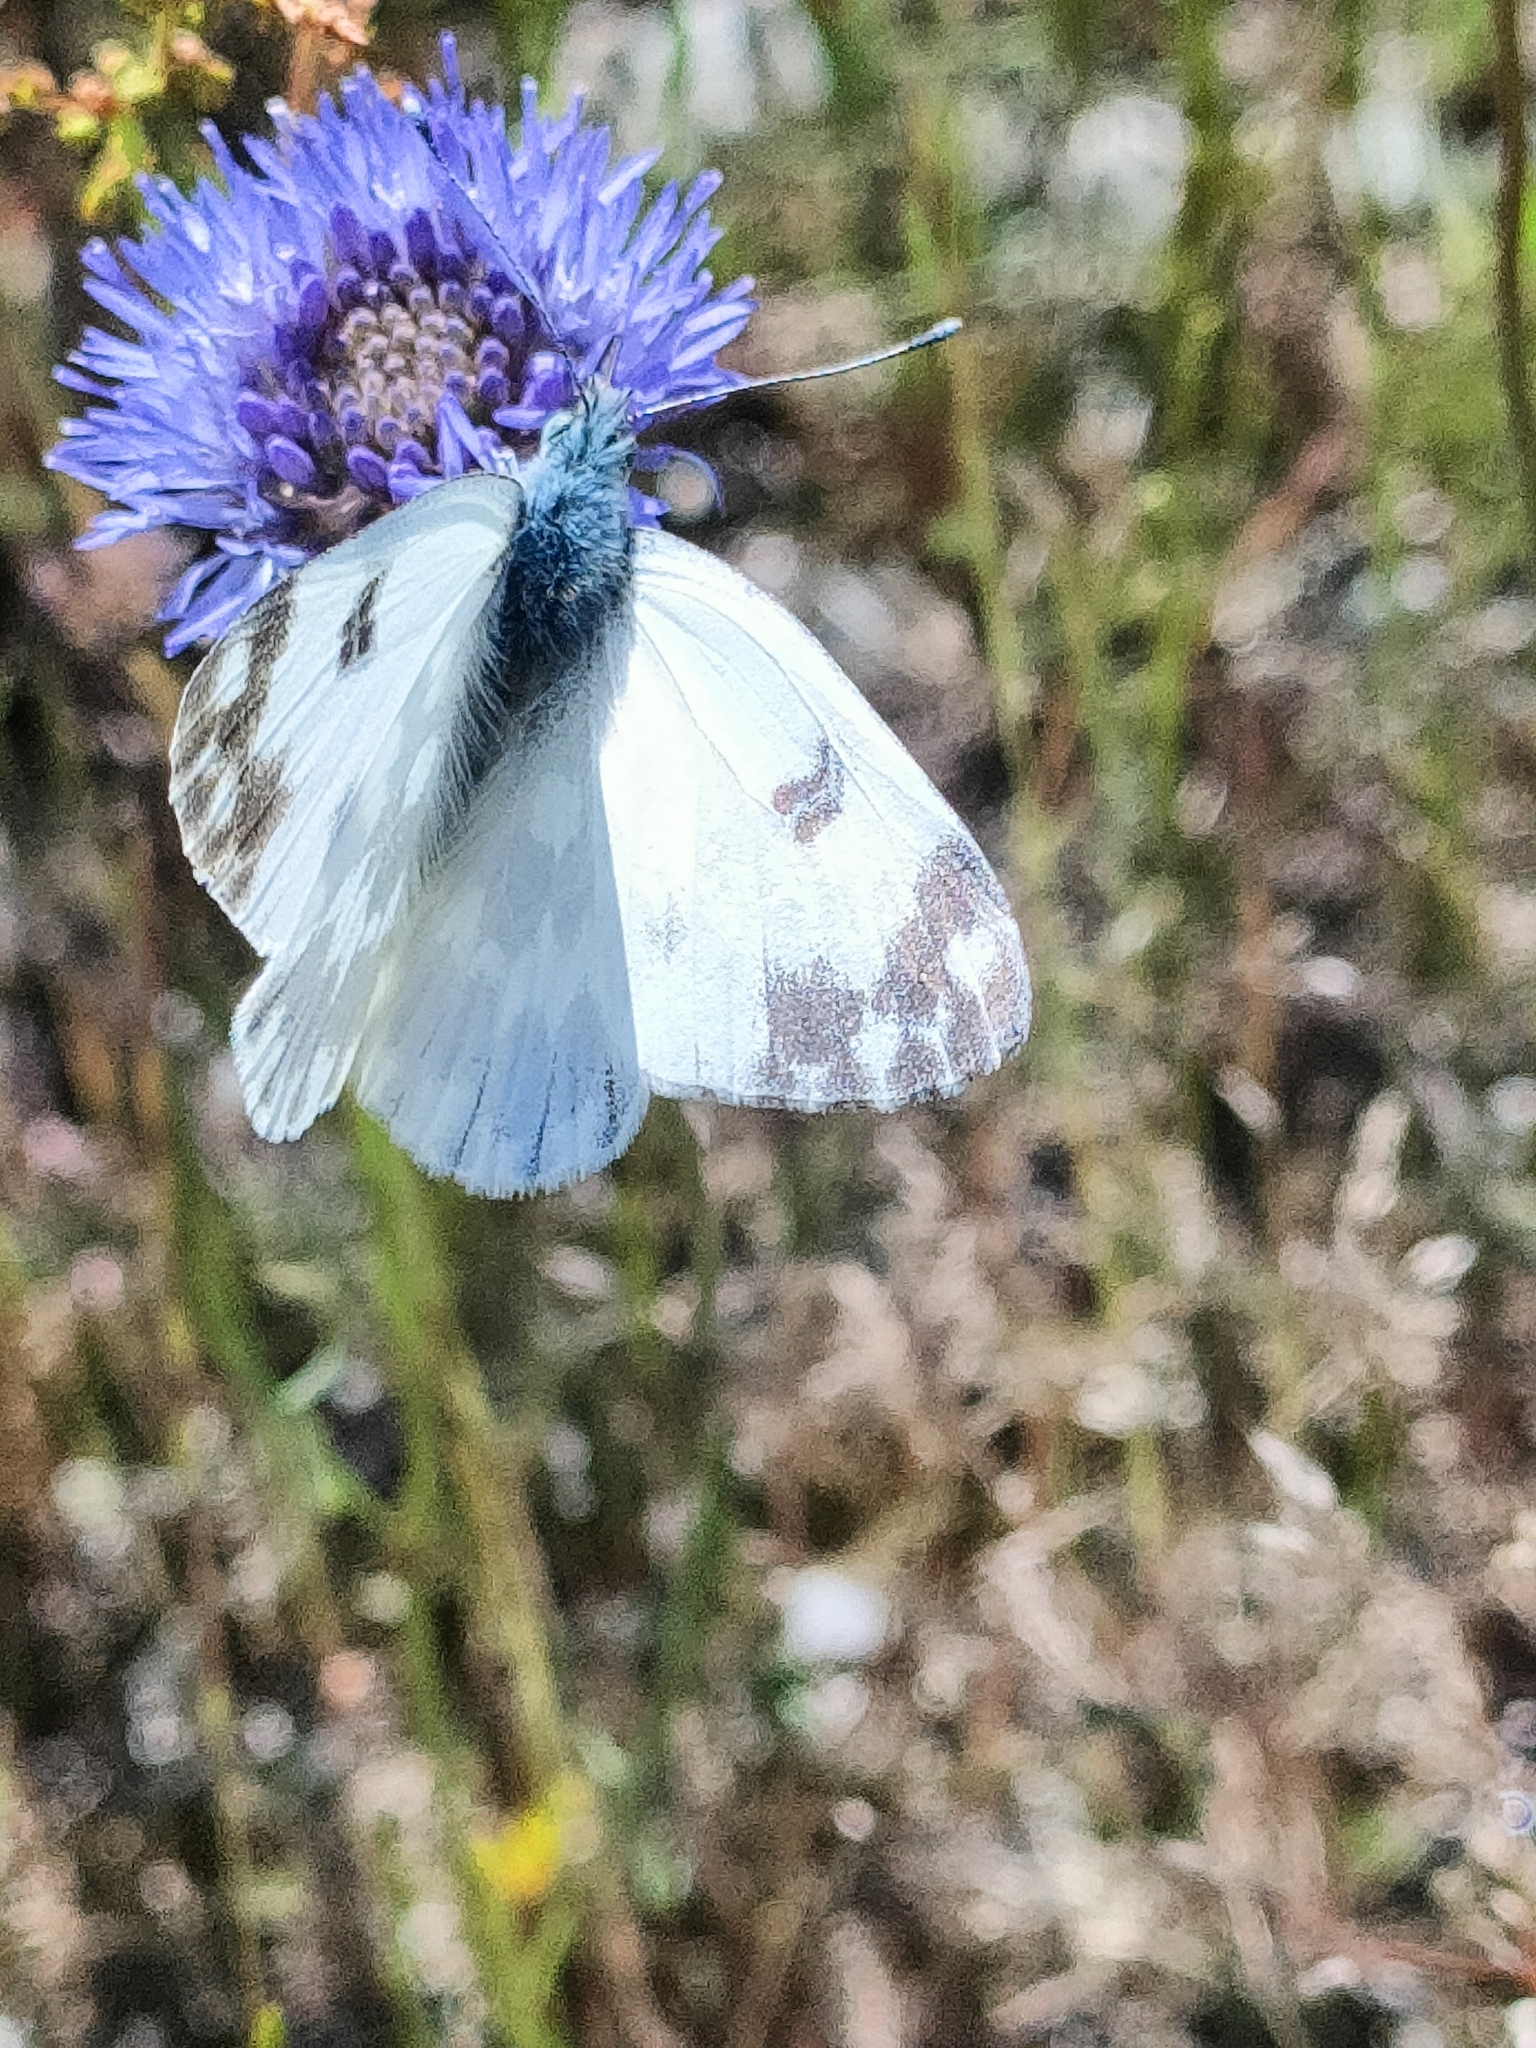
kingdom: Animalia
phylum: Arthropoda
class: Insecta
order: Lepidoptera
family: Pieridae
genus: Pontia
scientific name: Pontia edusa
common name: Eastern bath white
